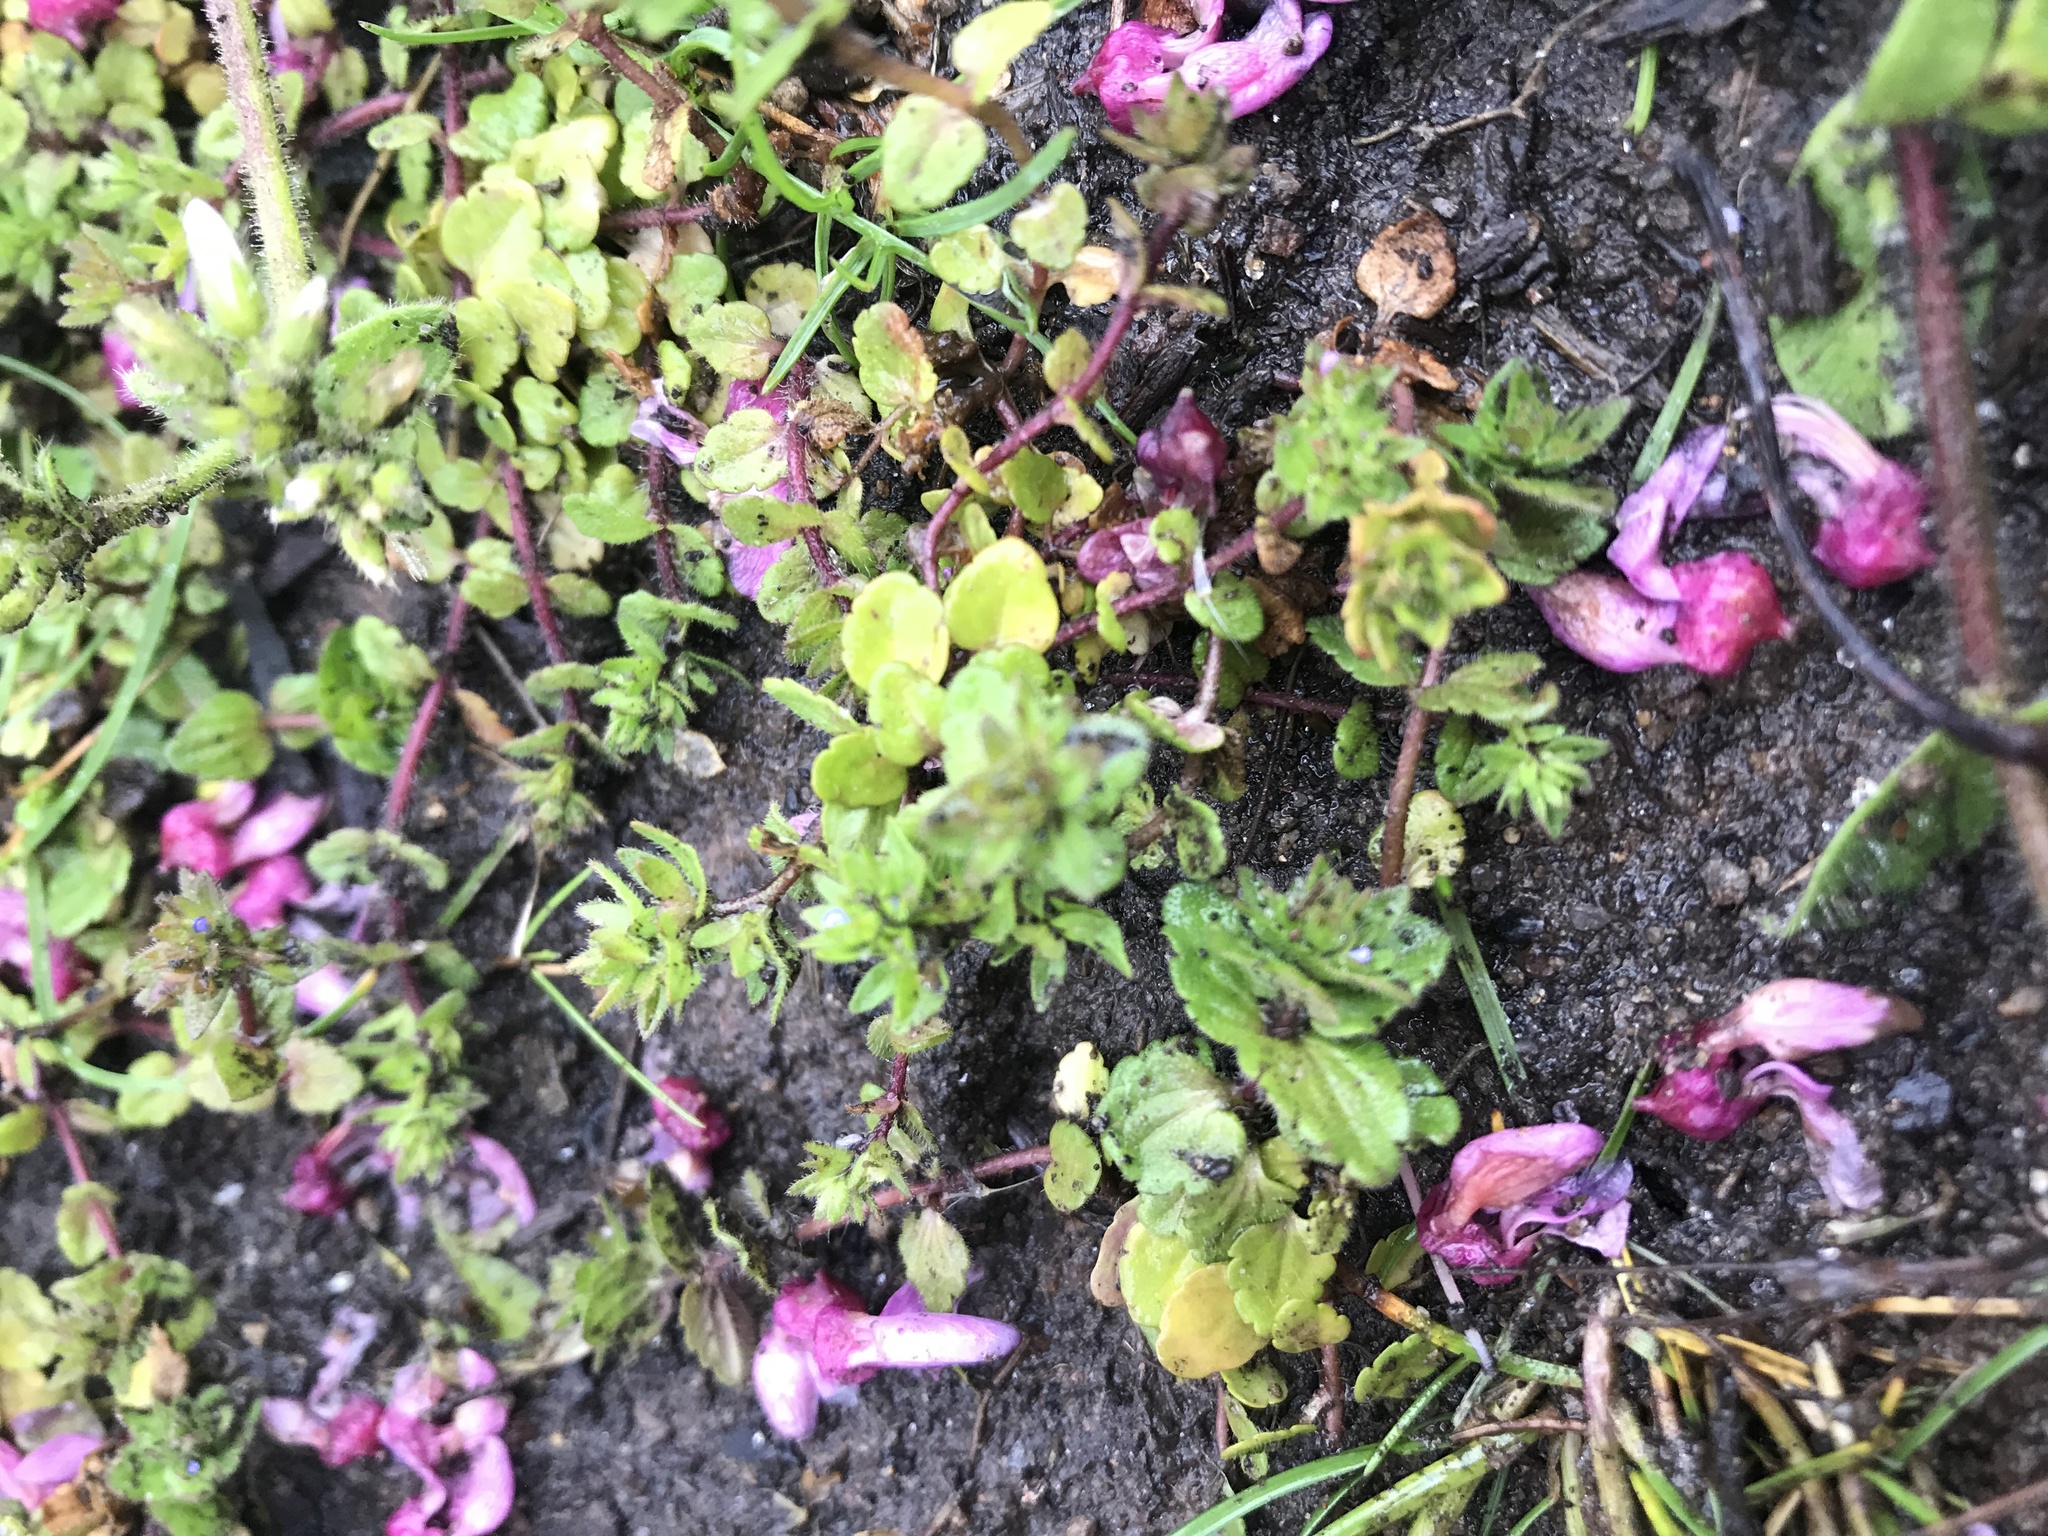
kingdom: Plantae
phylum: Tracheophyta
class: Magnoliopsida
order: Lamiales
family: Plantaginaceae
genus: Veronica
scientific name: Veronica arvensis
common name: Corn speedwell
